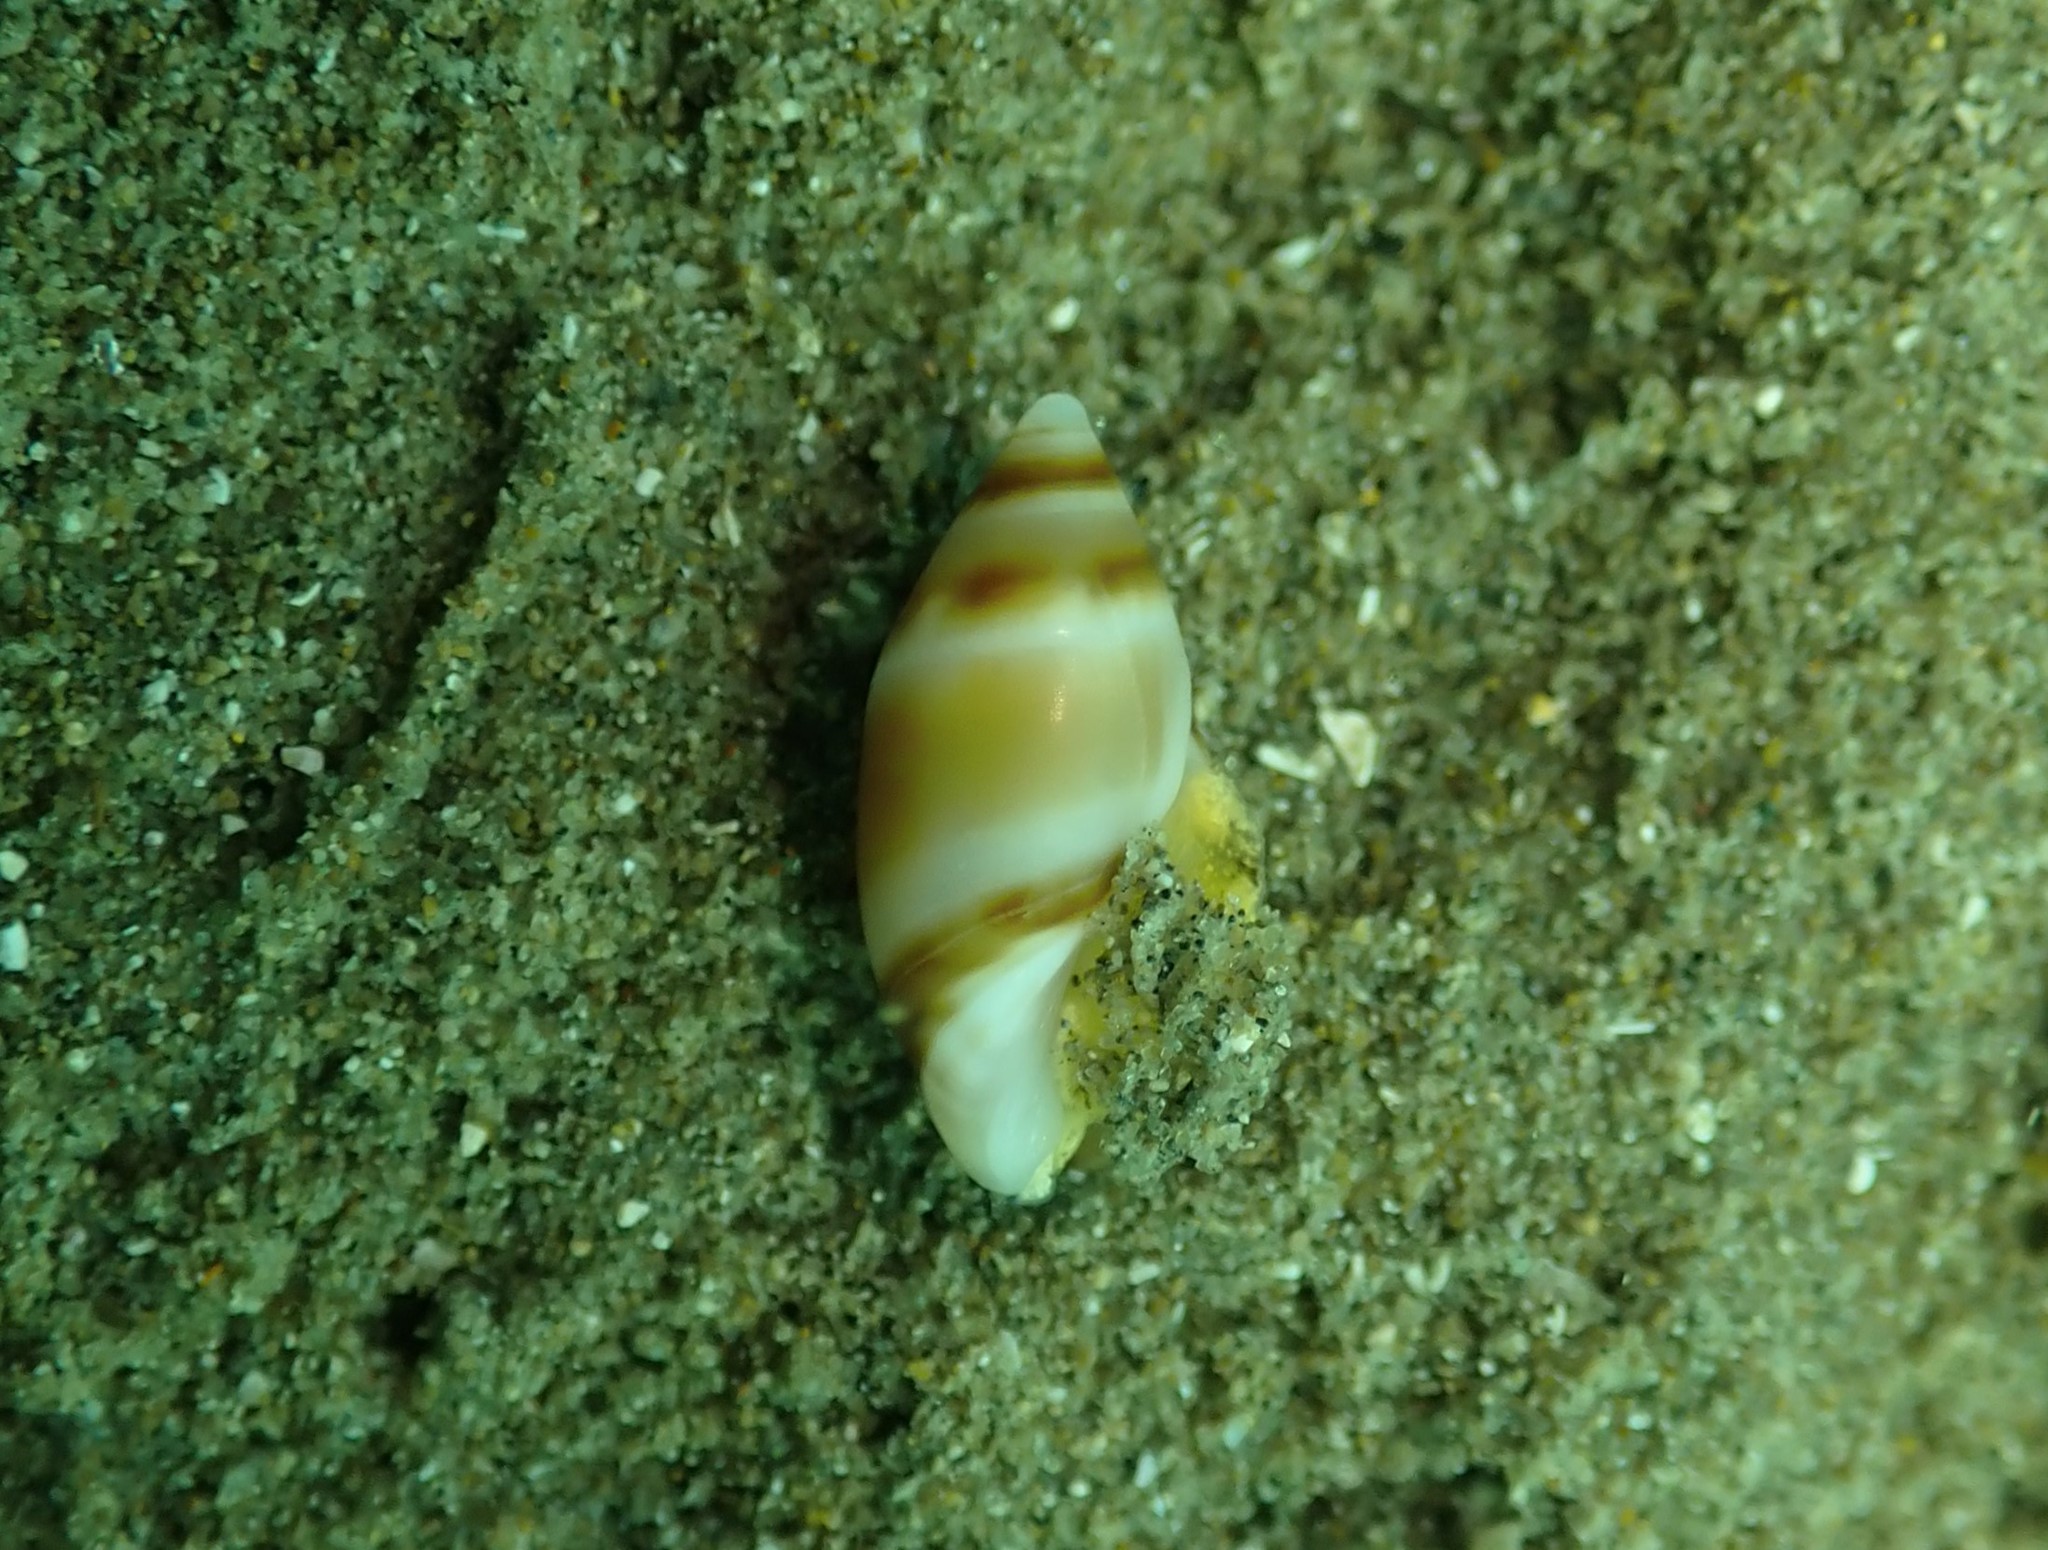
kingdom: Animalia
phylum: Mollusca
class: Gastropoda
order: Neogastropoda
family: Ancillariidae
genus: Amalda
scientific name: Amalda novaezelandiae
